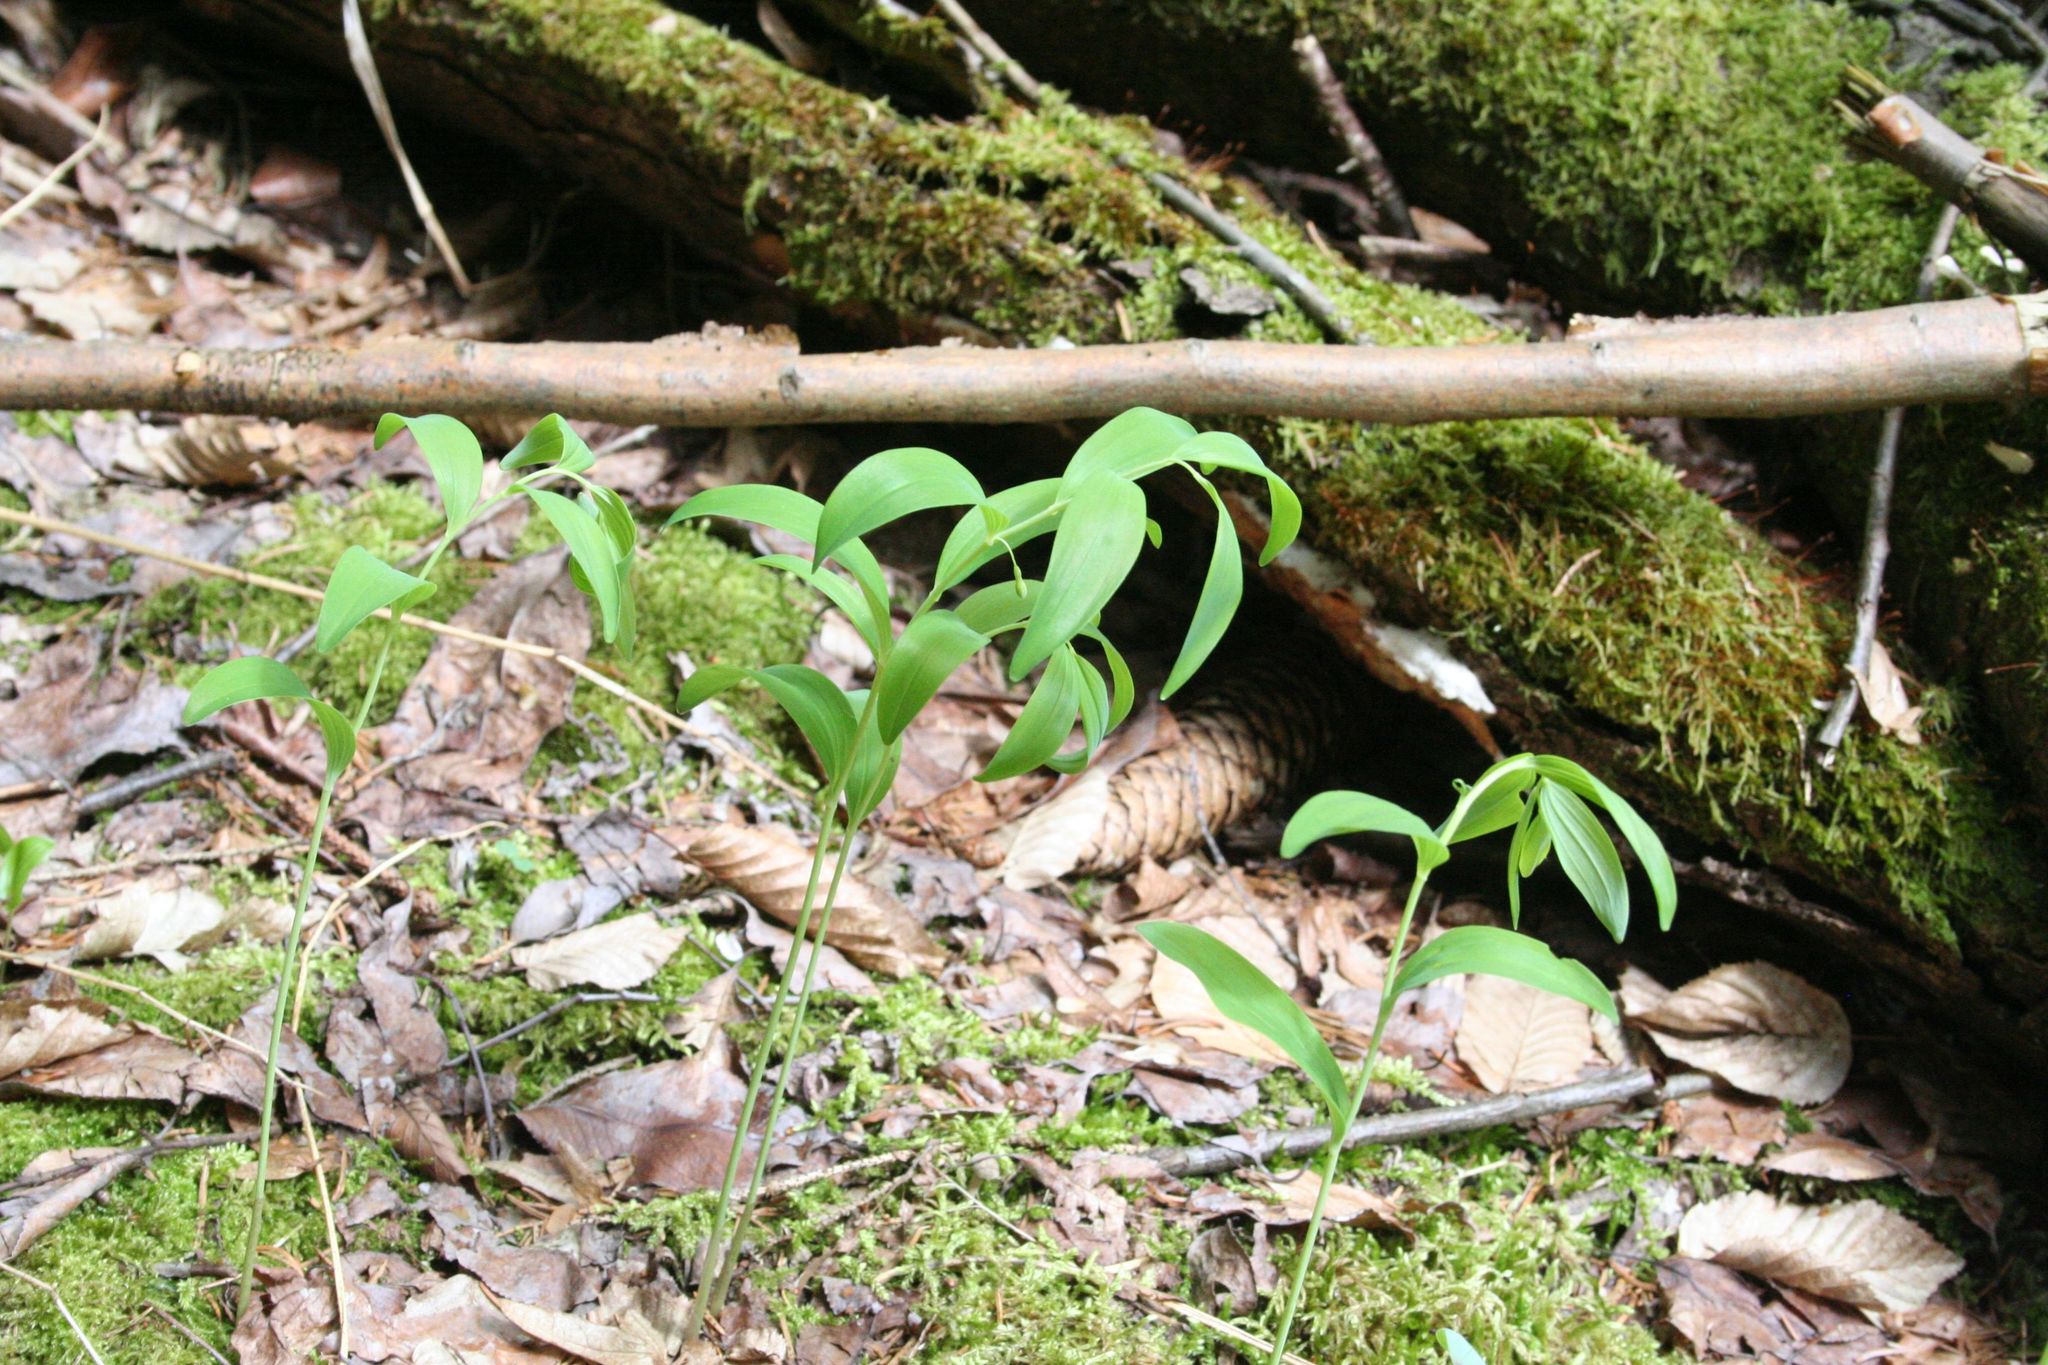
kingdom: Plantae
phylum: Tracheophyta
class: Liliopsida
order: Asparagales
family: Asparagaceae
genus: Polygonatum
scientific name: Polygonatum multiflorum
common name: Solomon's-seal
